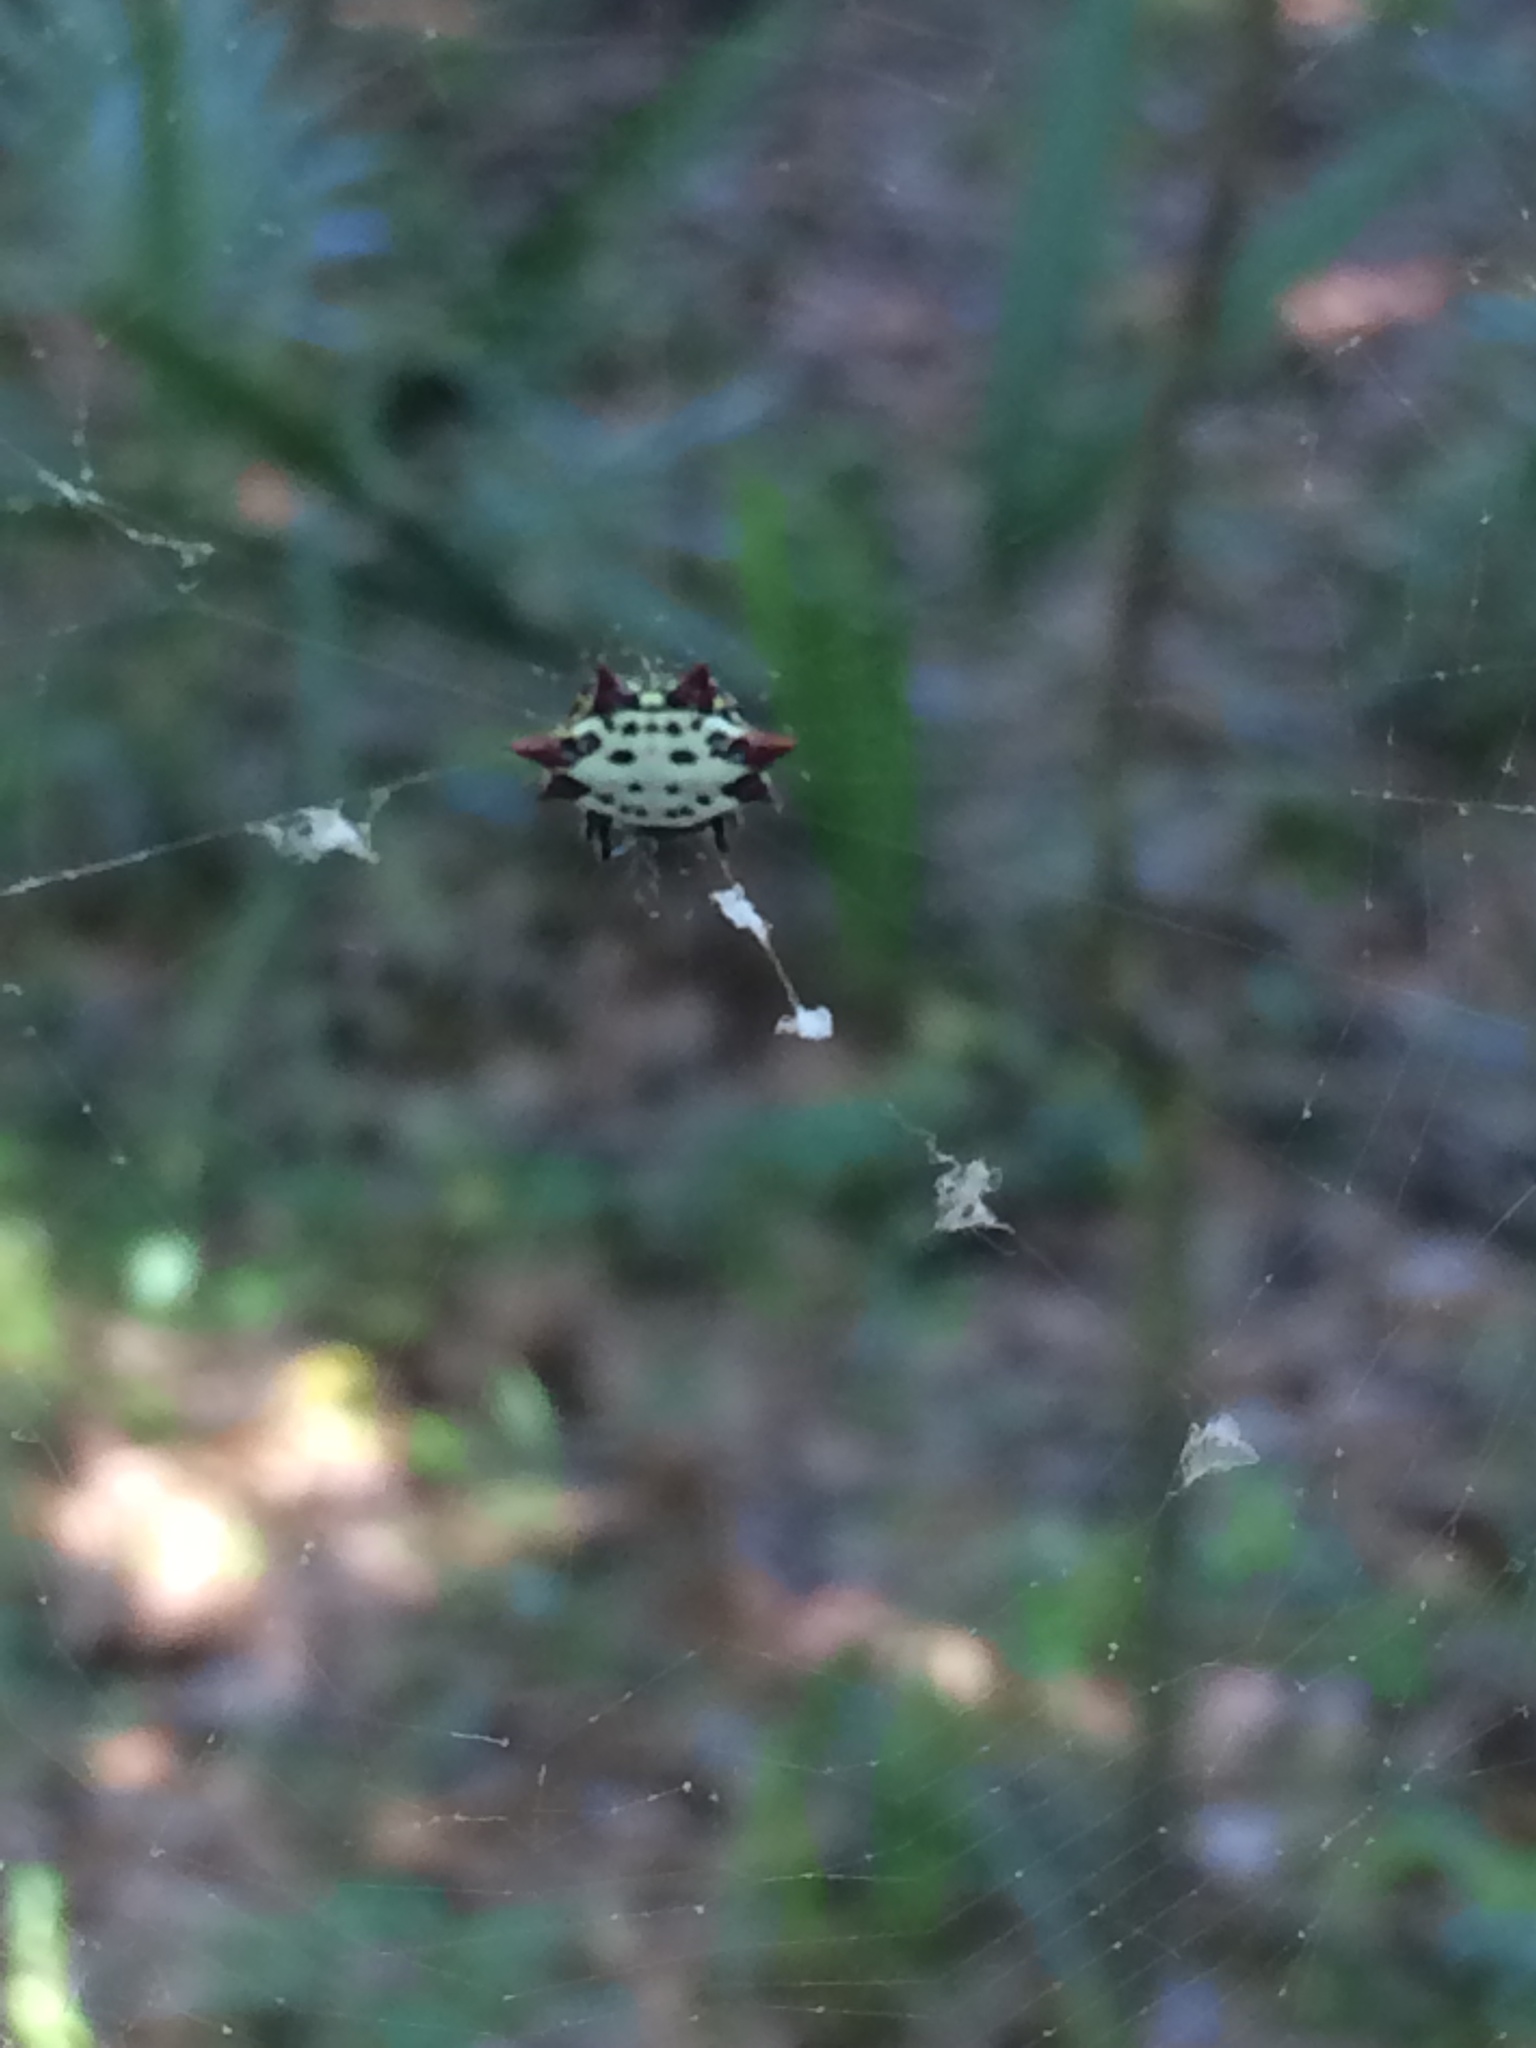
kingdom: Animalia
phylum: Arthropoda
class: Arachnida
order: Araneae
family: Araneidae
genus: Gasteracantha
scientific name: Gasteracantha cancriformis
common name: Orb weavers
